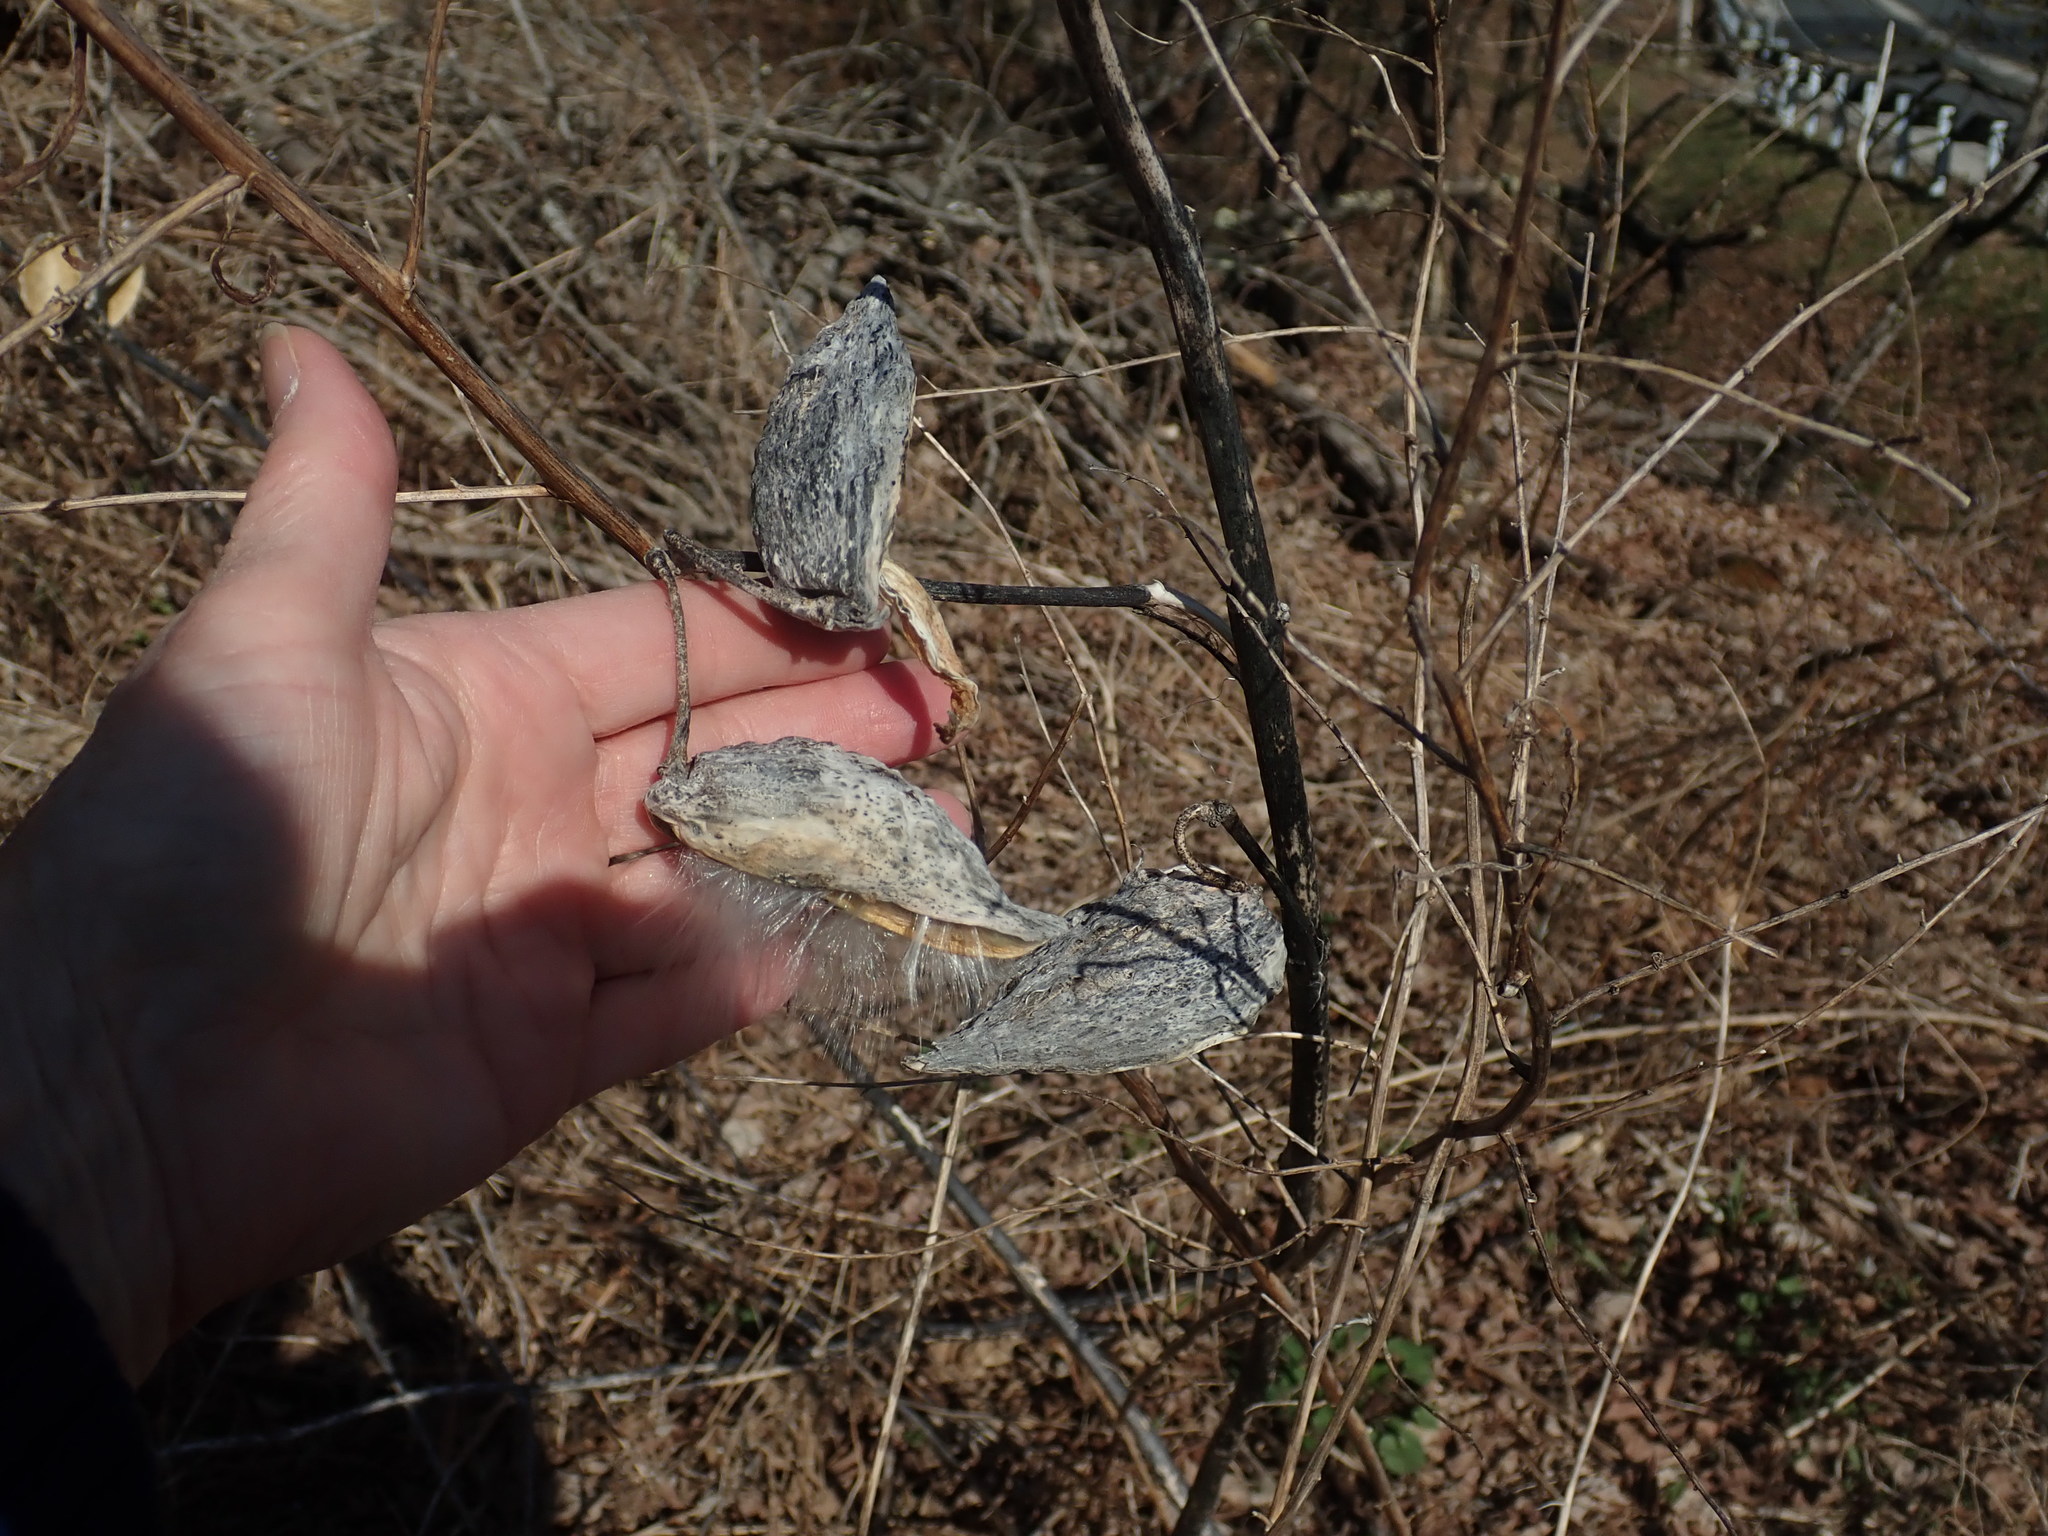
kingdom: Plantae
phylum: Tracheophyta
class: Magnoliopsida
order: Gentianales
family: Apocynaceae
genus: Asclepias
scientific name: Asclepias syriaca
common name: Common milkweed
